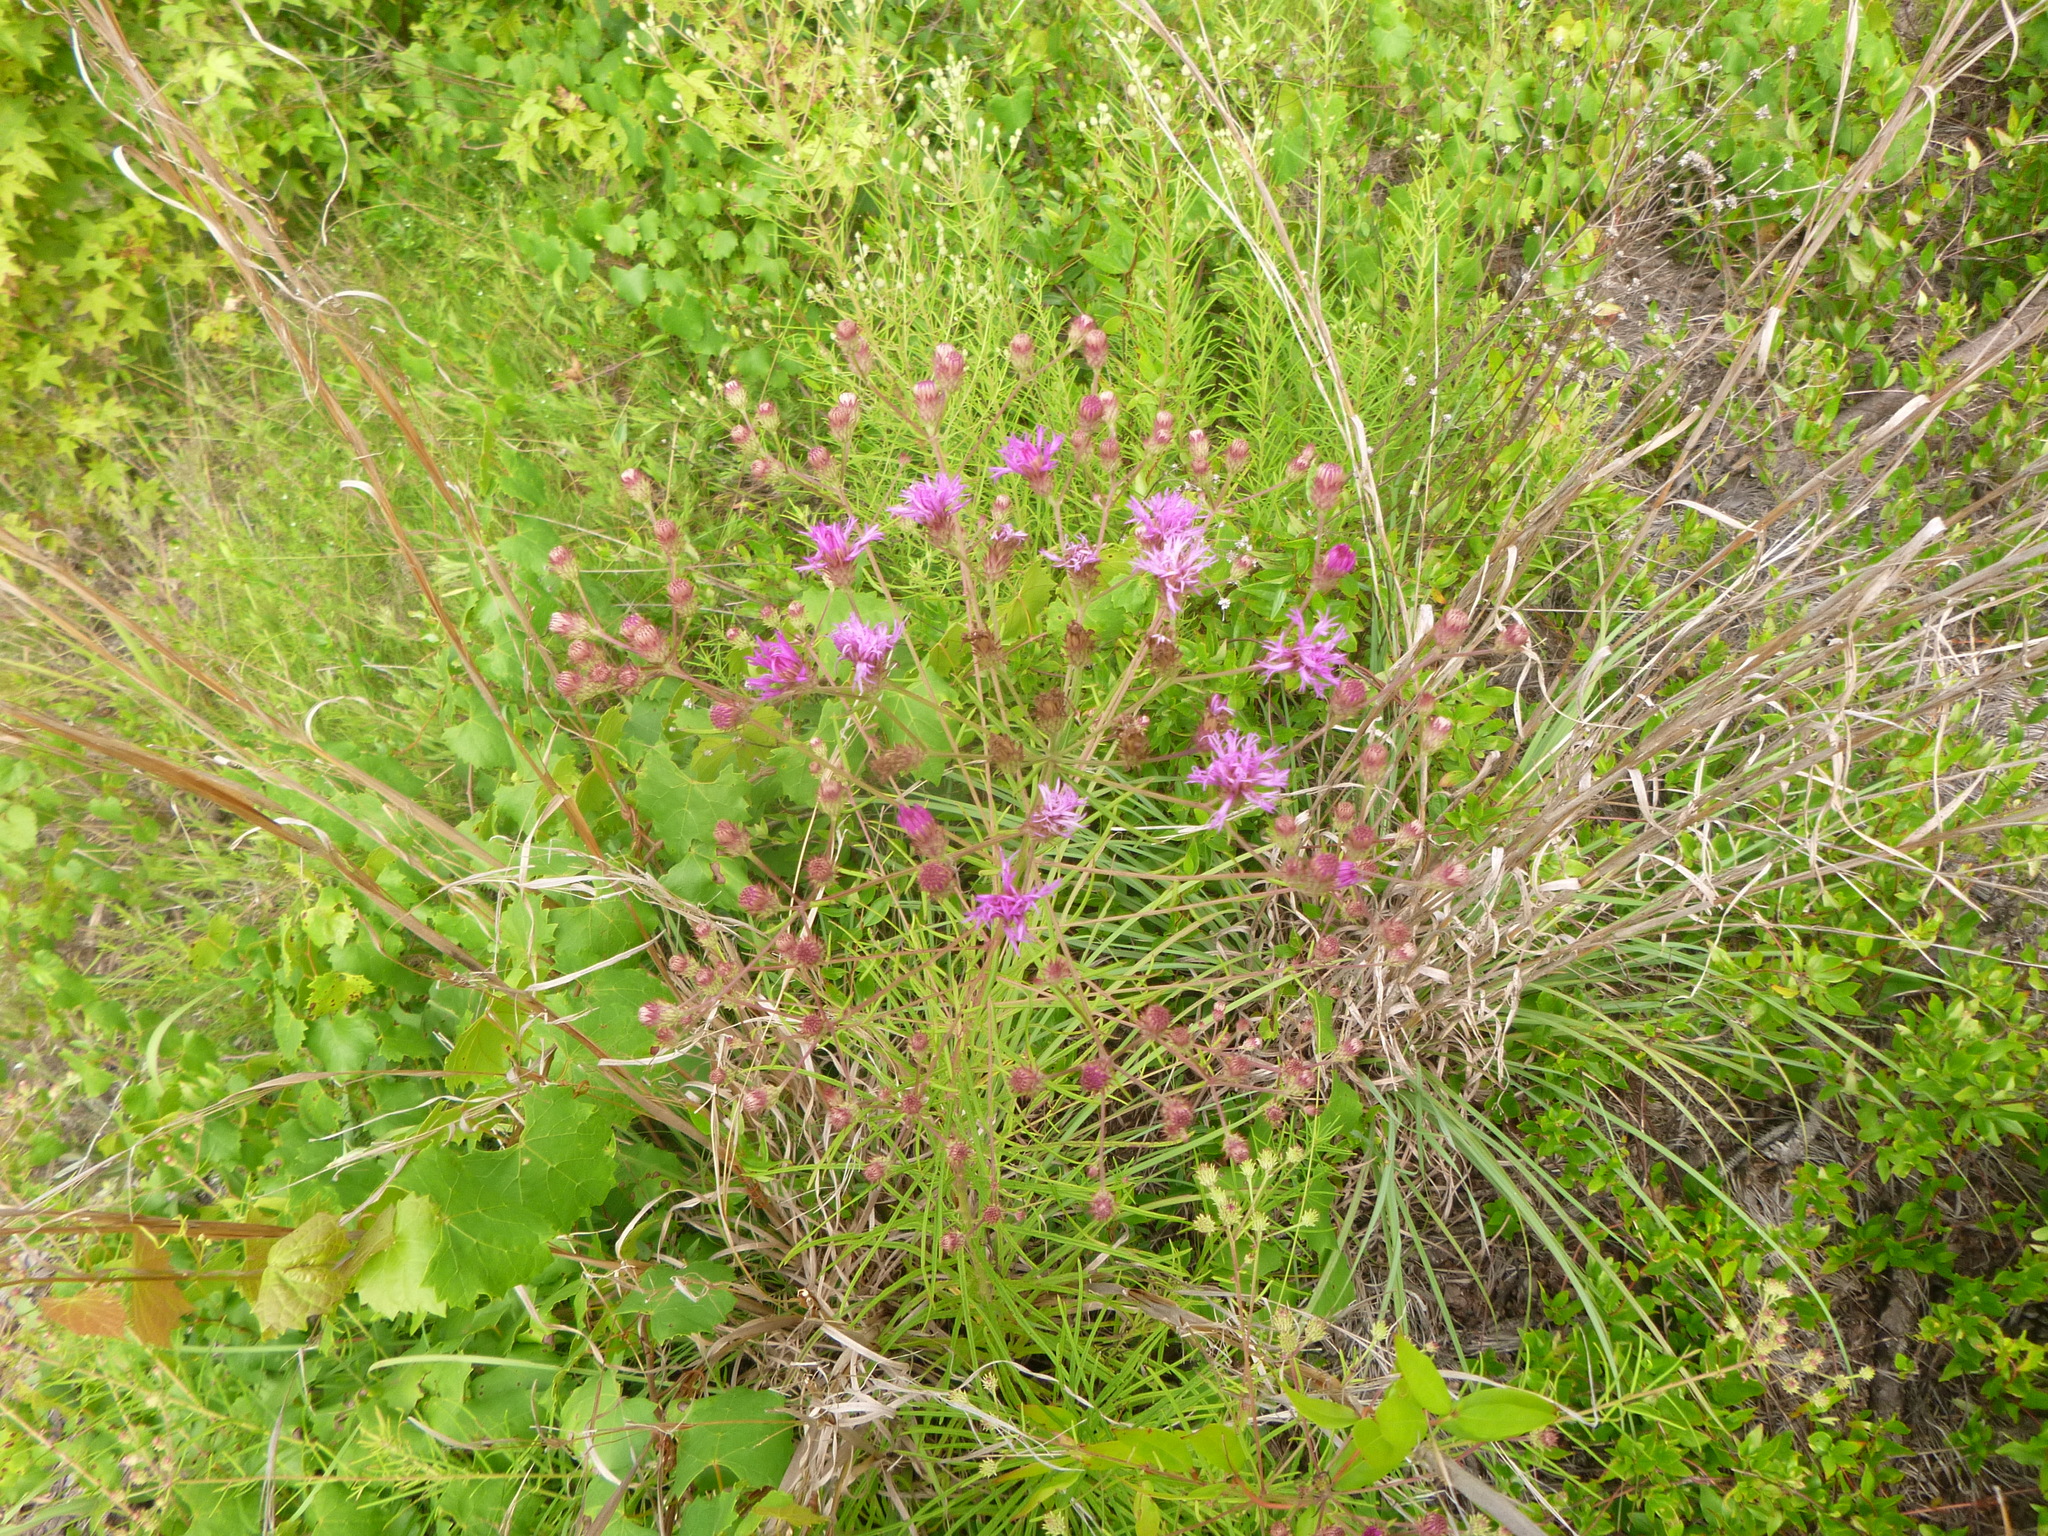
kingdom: Plantae
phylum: Tracheophyta
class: Magnoliopsida
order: Asterales
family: Asteraceae
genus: Vernonia
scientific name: Vernonia angustifolia
